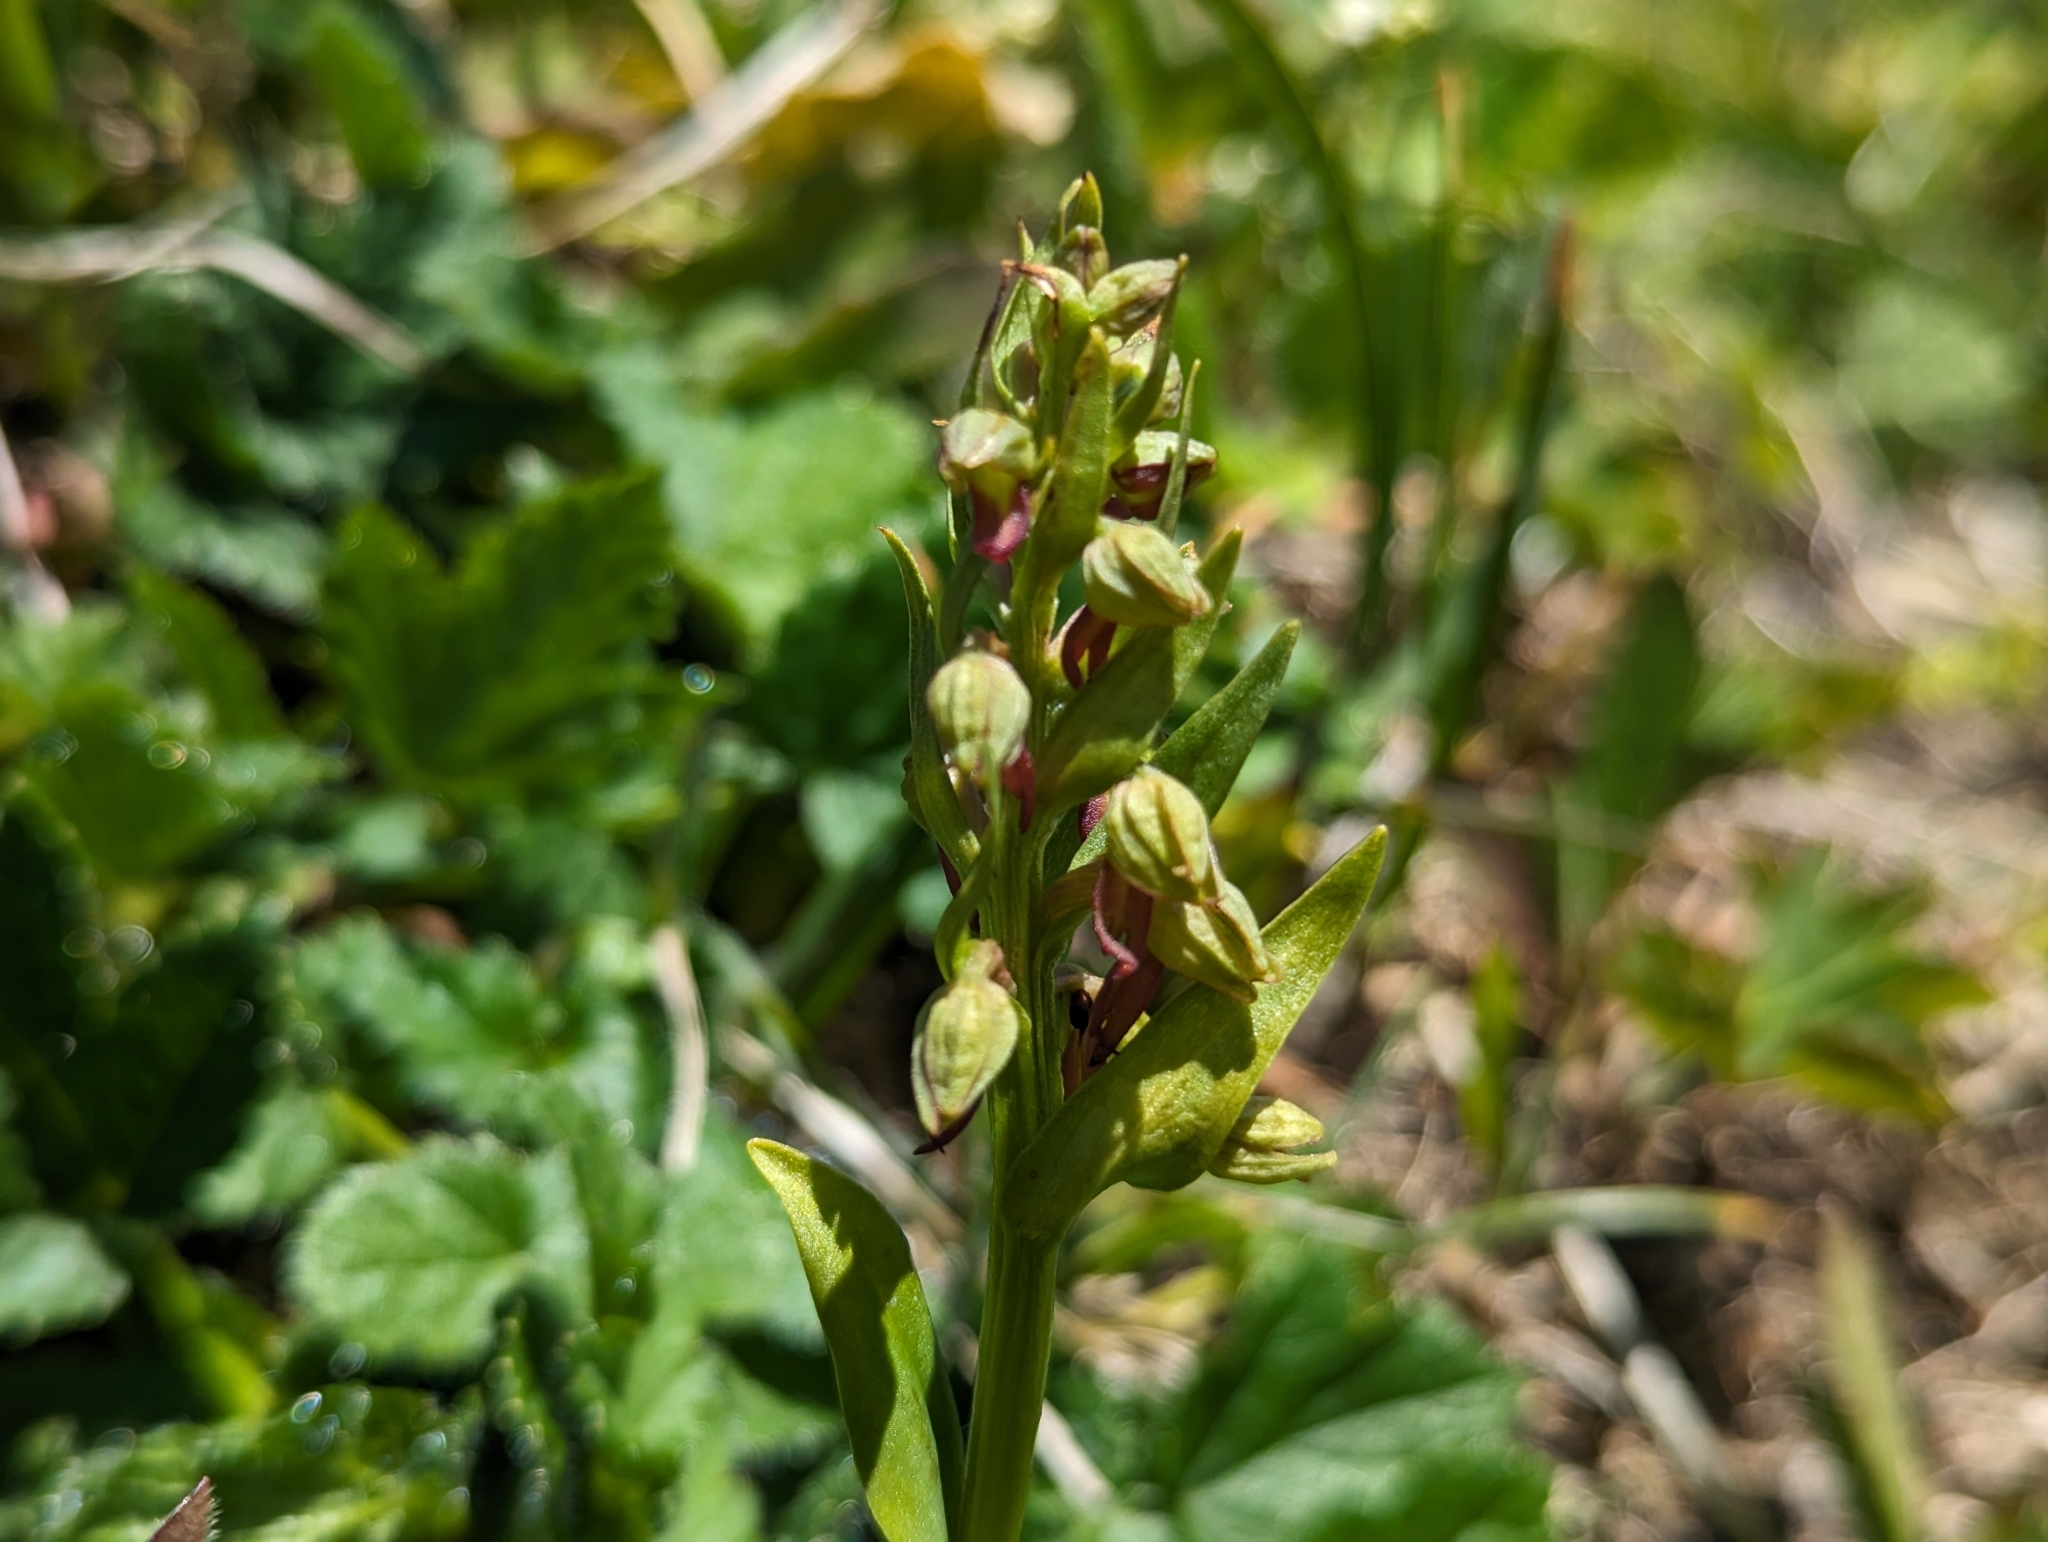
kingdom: Plantae
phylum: Tracheophyta
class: Liliopsida
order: Asparagales
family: Orchidaceae
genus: Dactylorhiza
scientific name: Dactylorhiza viridis
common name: Longbract frog orchid
